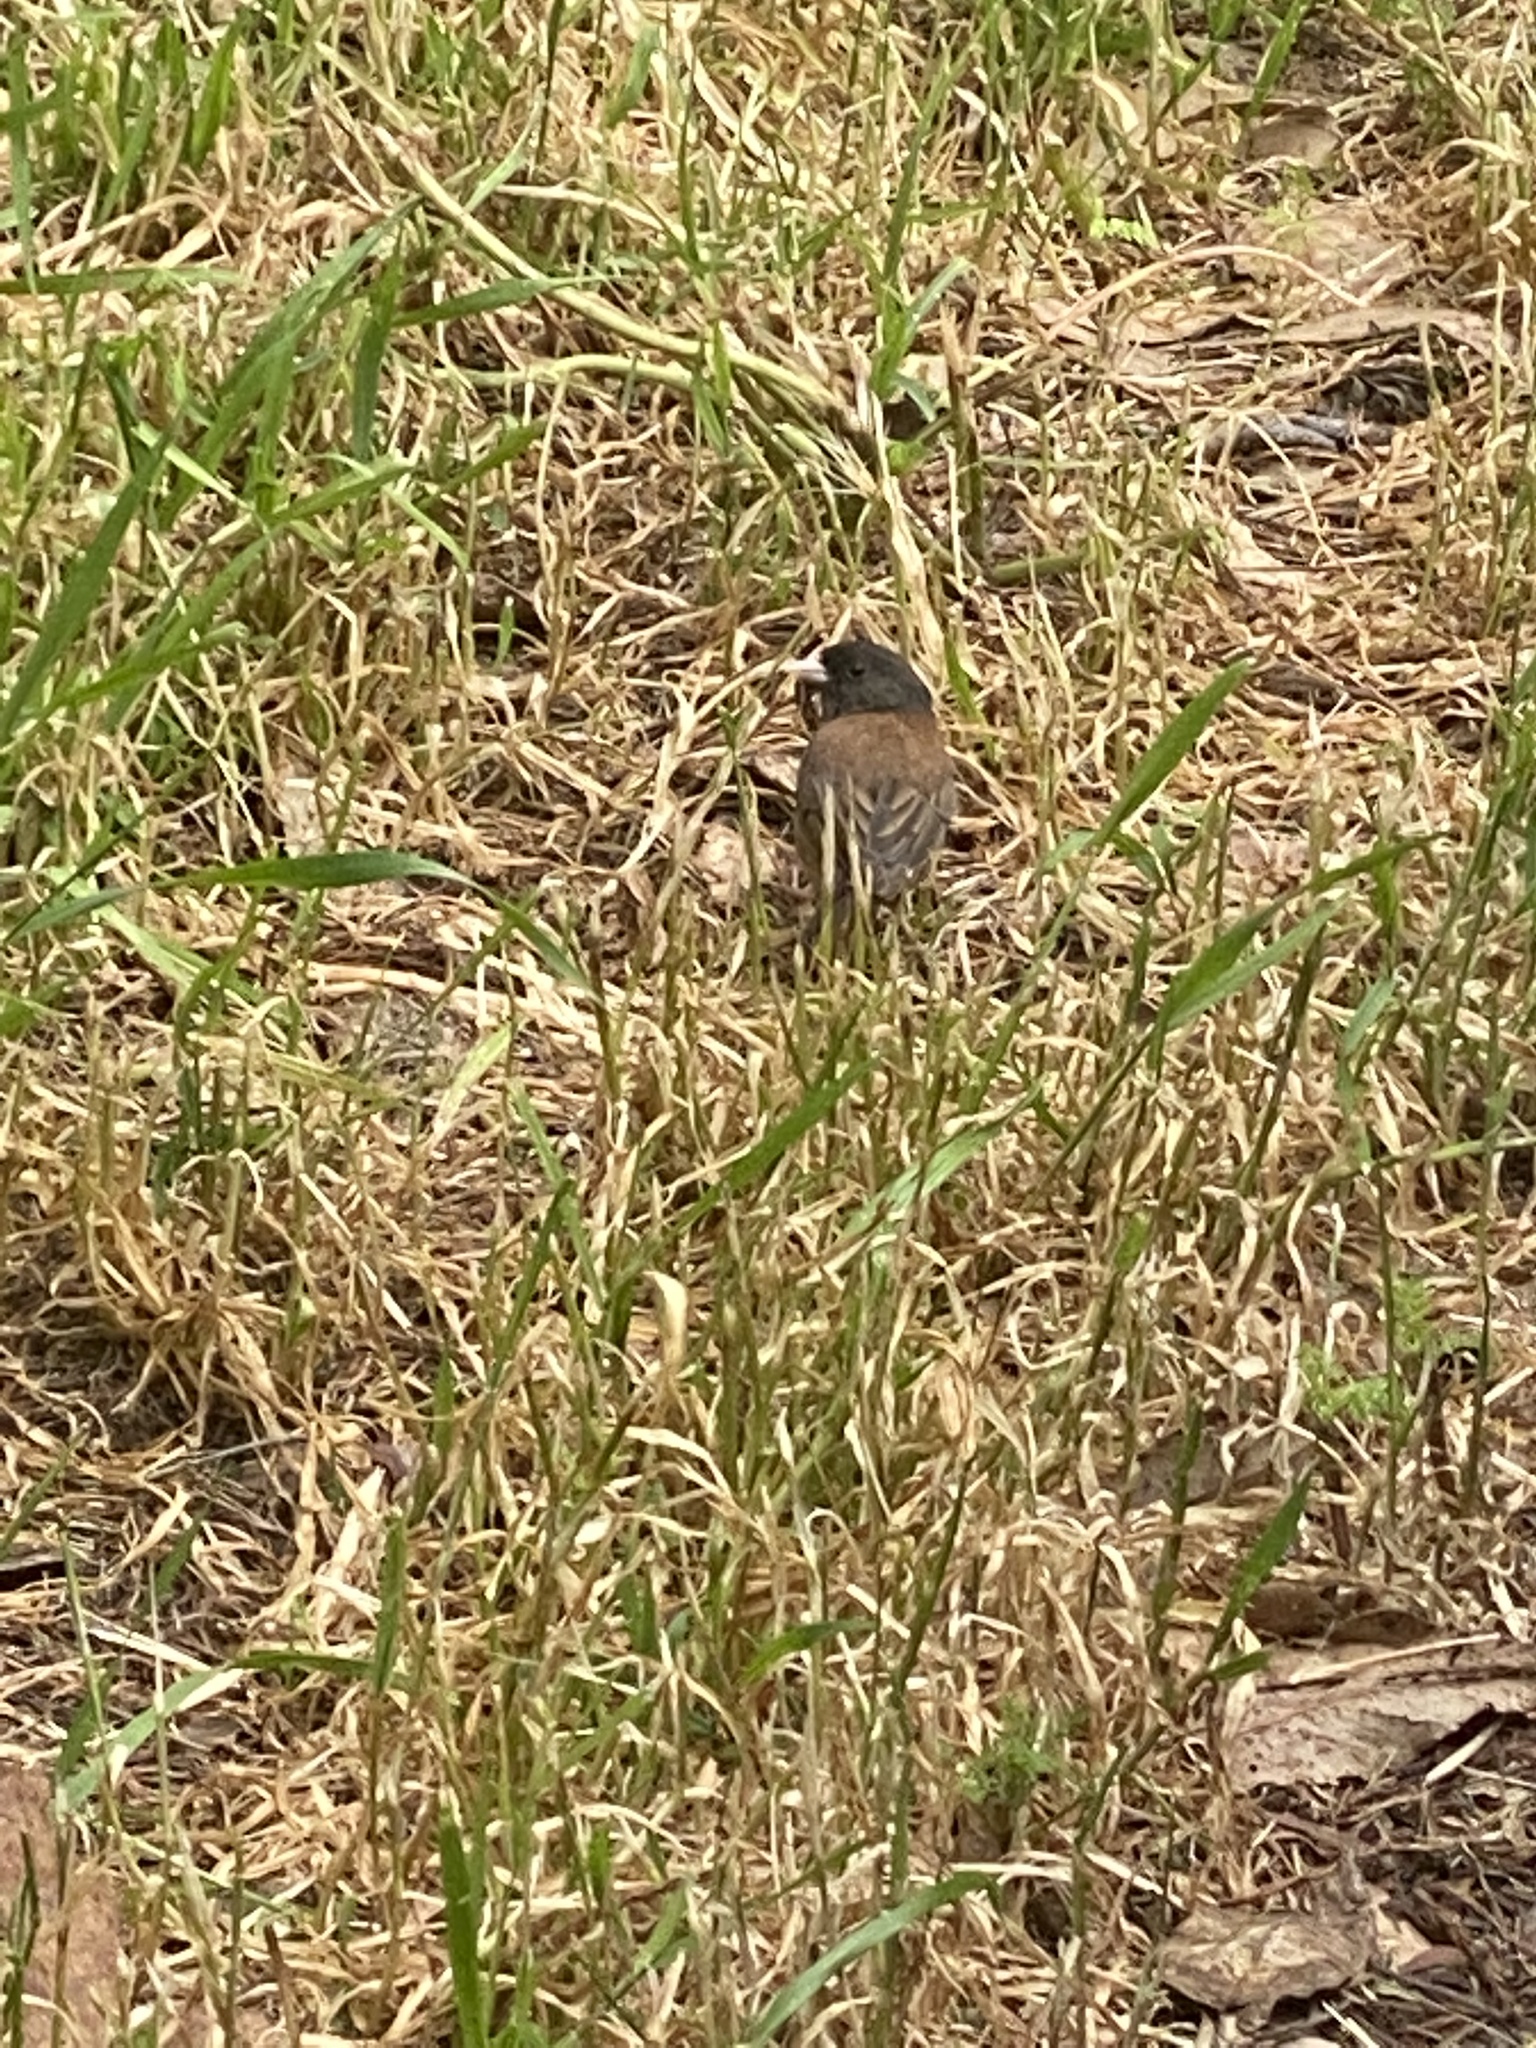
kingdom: Animalia
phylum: Chordata
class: Aves
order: Passeriformes
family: Passerellidae
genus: Junco
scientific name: Junco hyemalis
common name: Dark-eyed junco
